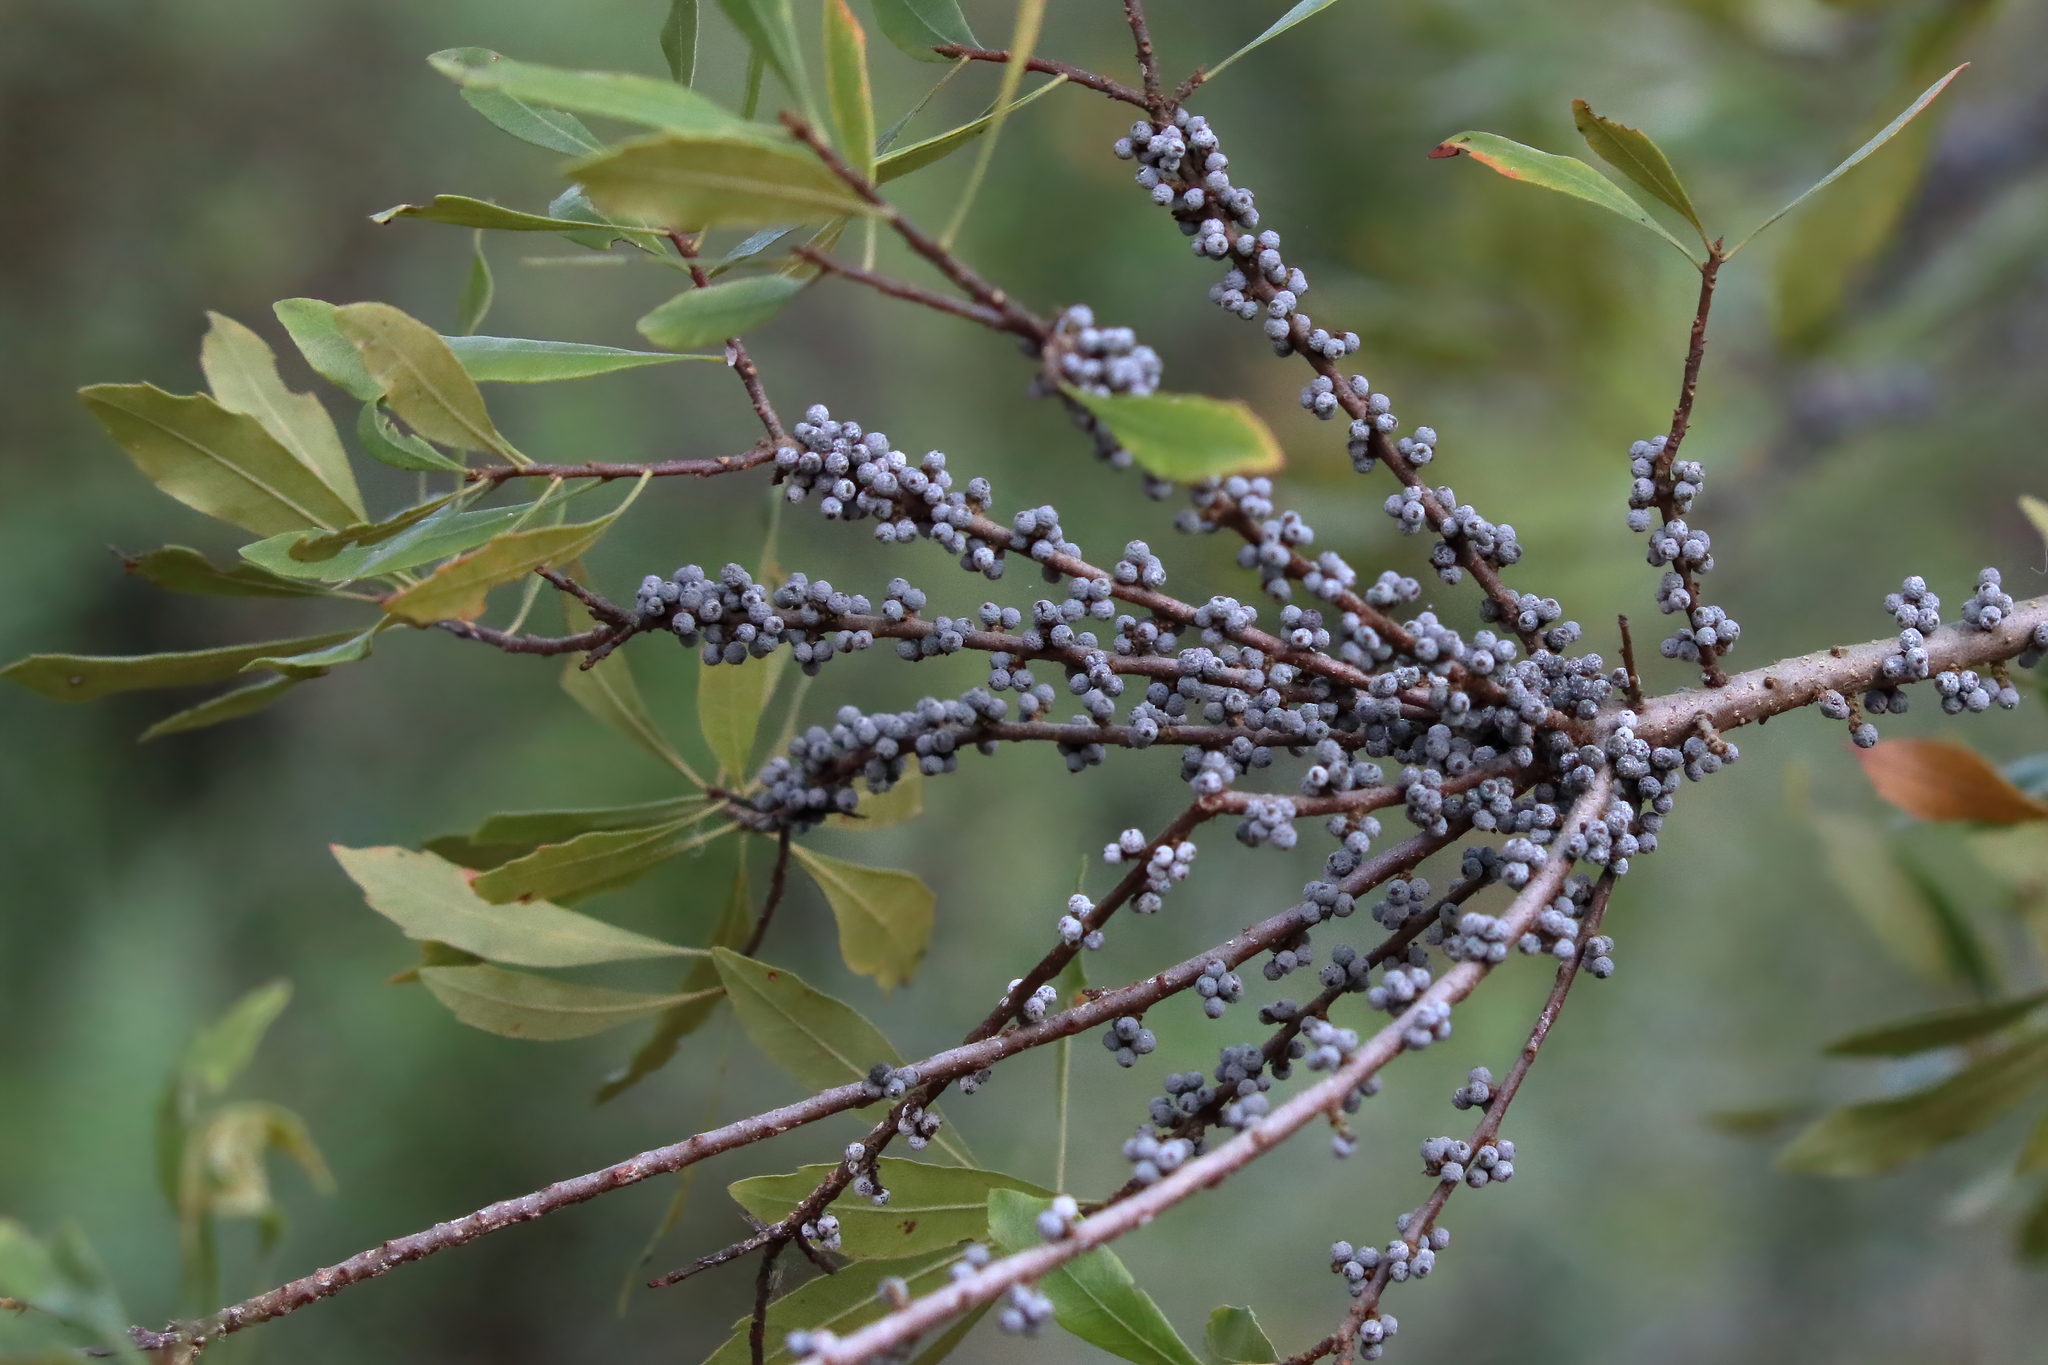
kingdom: Plantae
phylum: Tracheophyta
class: Magnoliopsida
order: Fagales
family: Myricaceae
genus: Morella
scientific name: Morella cerifera
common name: Wax myrtle
